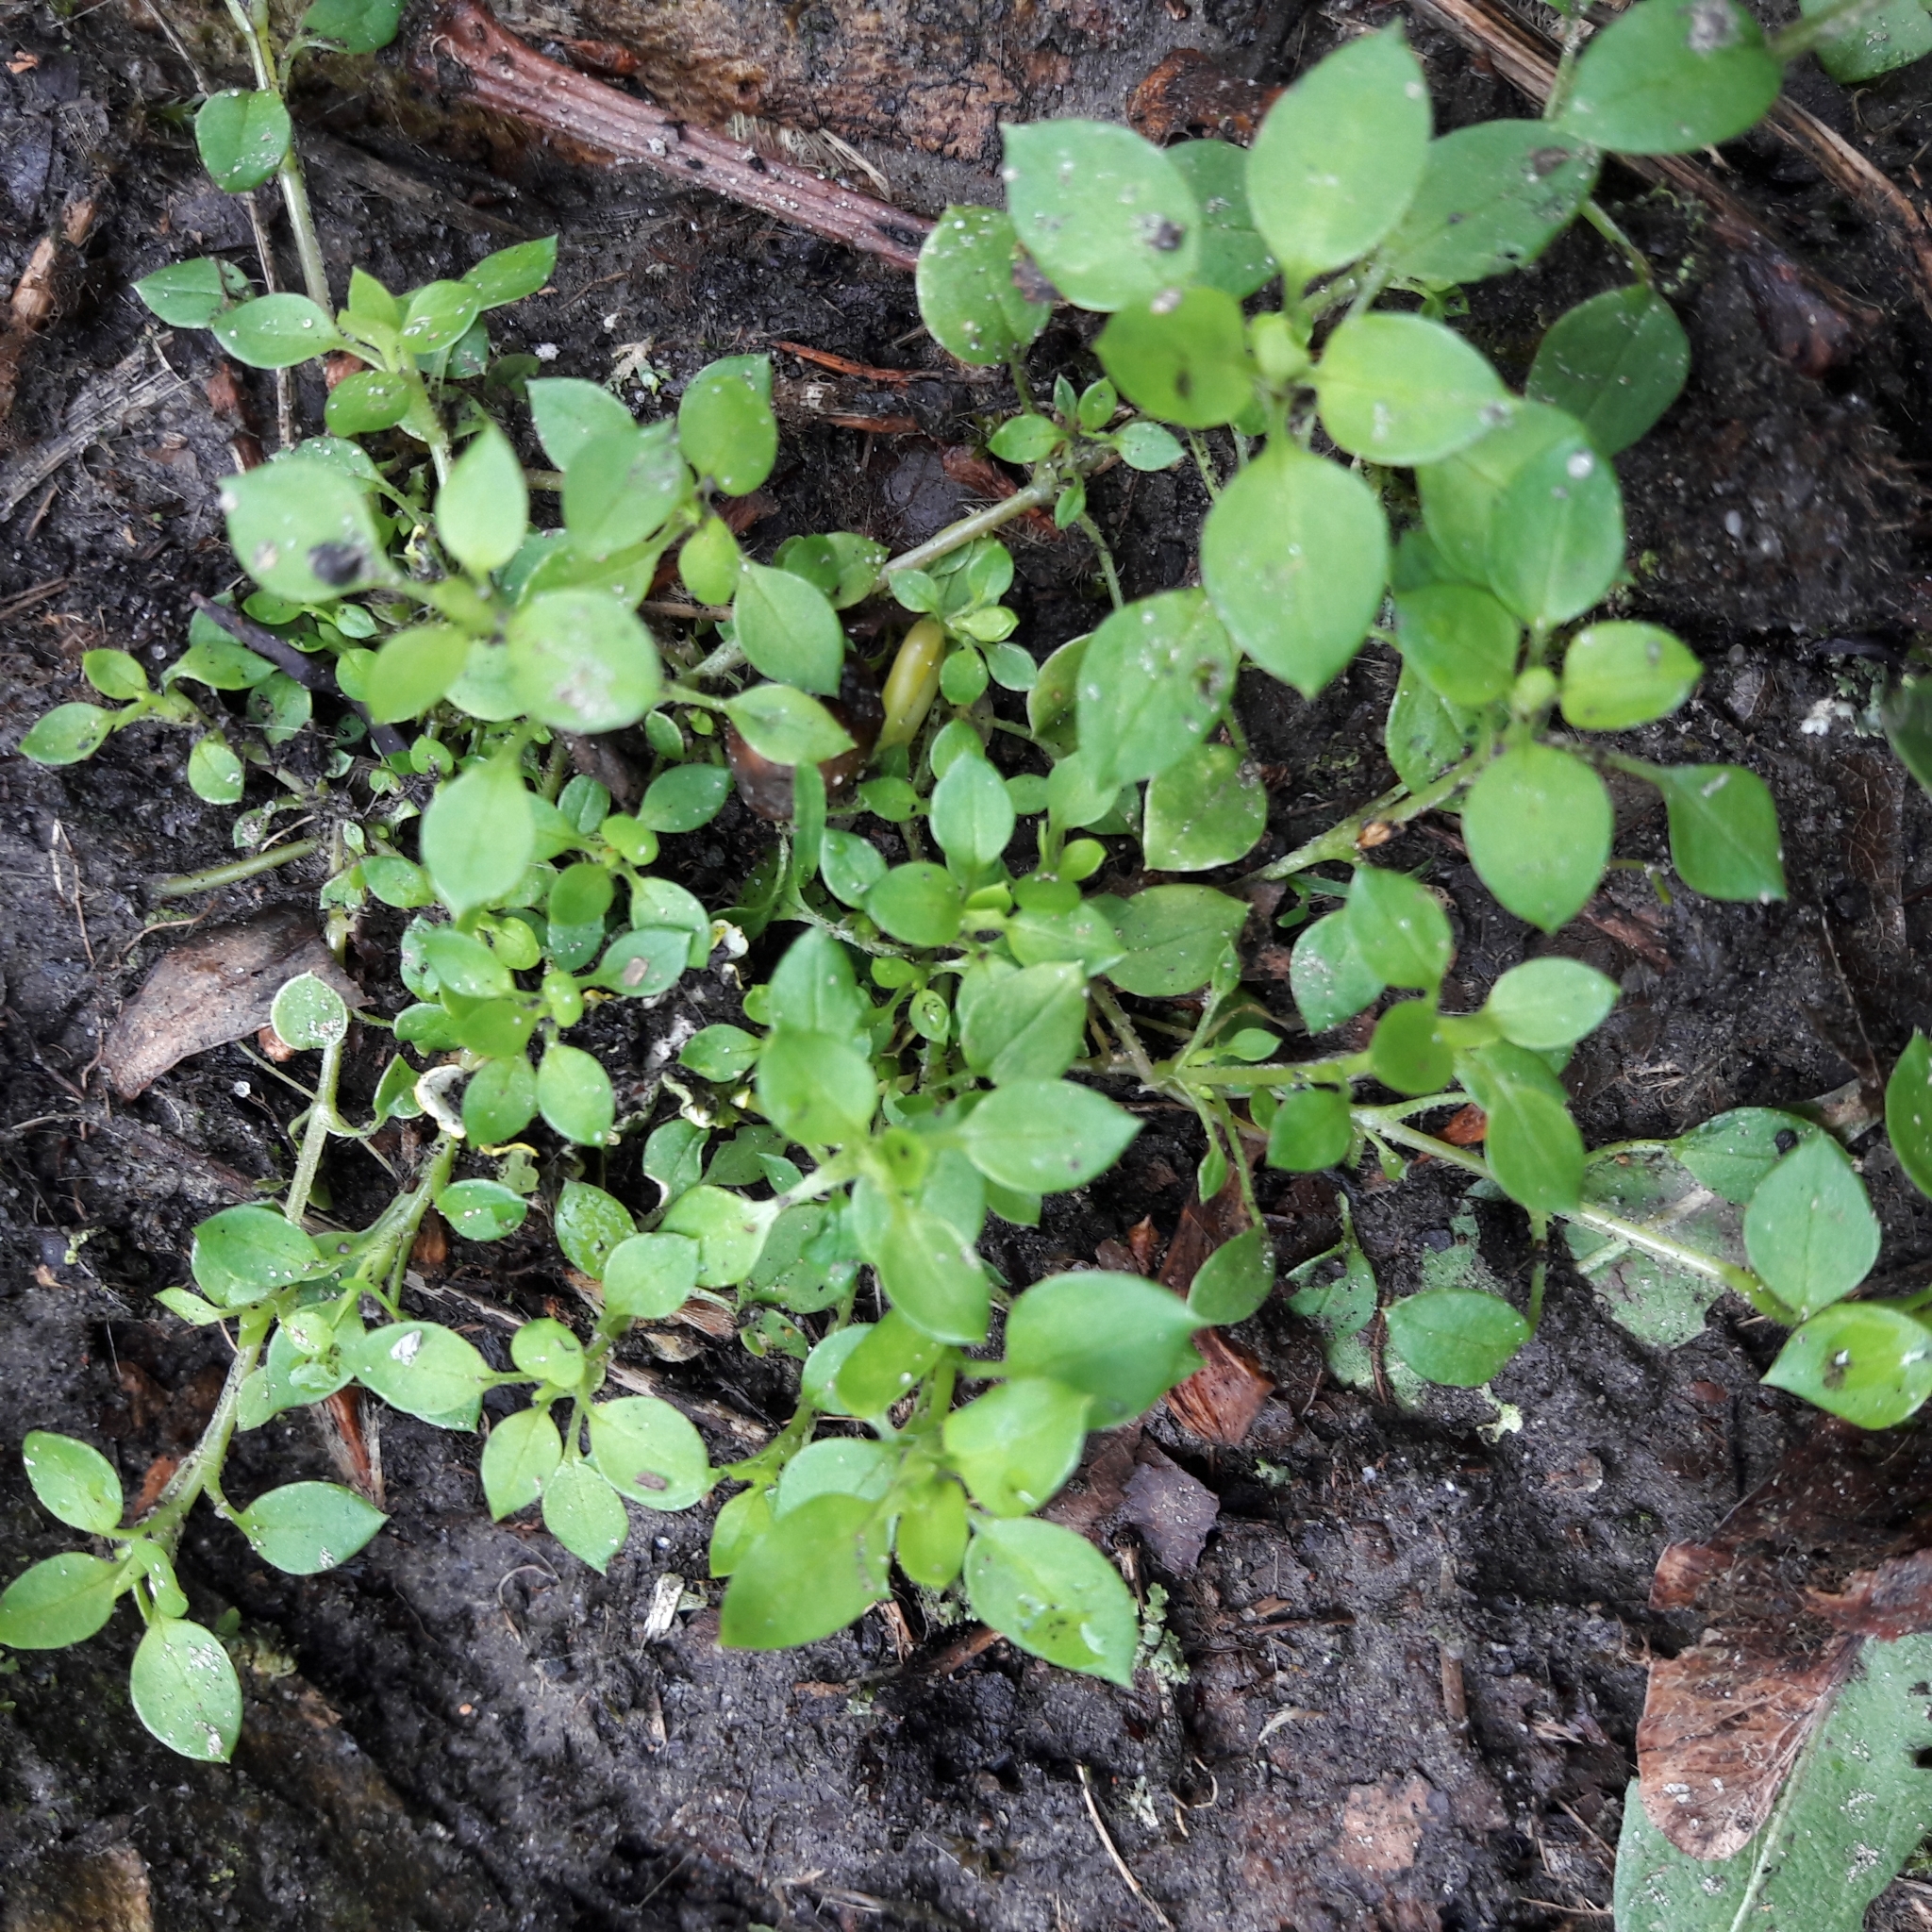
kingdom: Plantae
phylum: Tracheophyta
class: Magnoliopsida
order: Caryophyllales
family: Caryophyllaceae
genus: Stellaria
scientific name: Stellaria media
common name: Common chickweed
